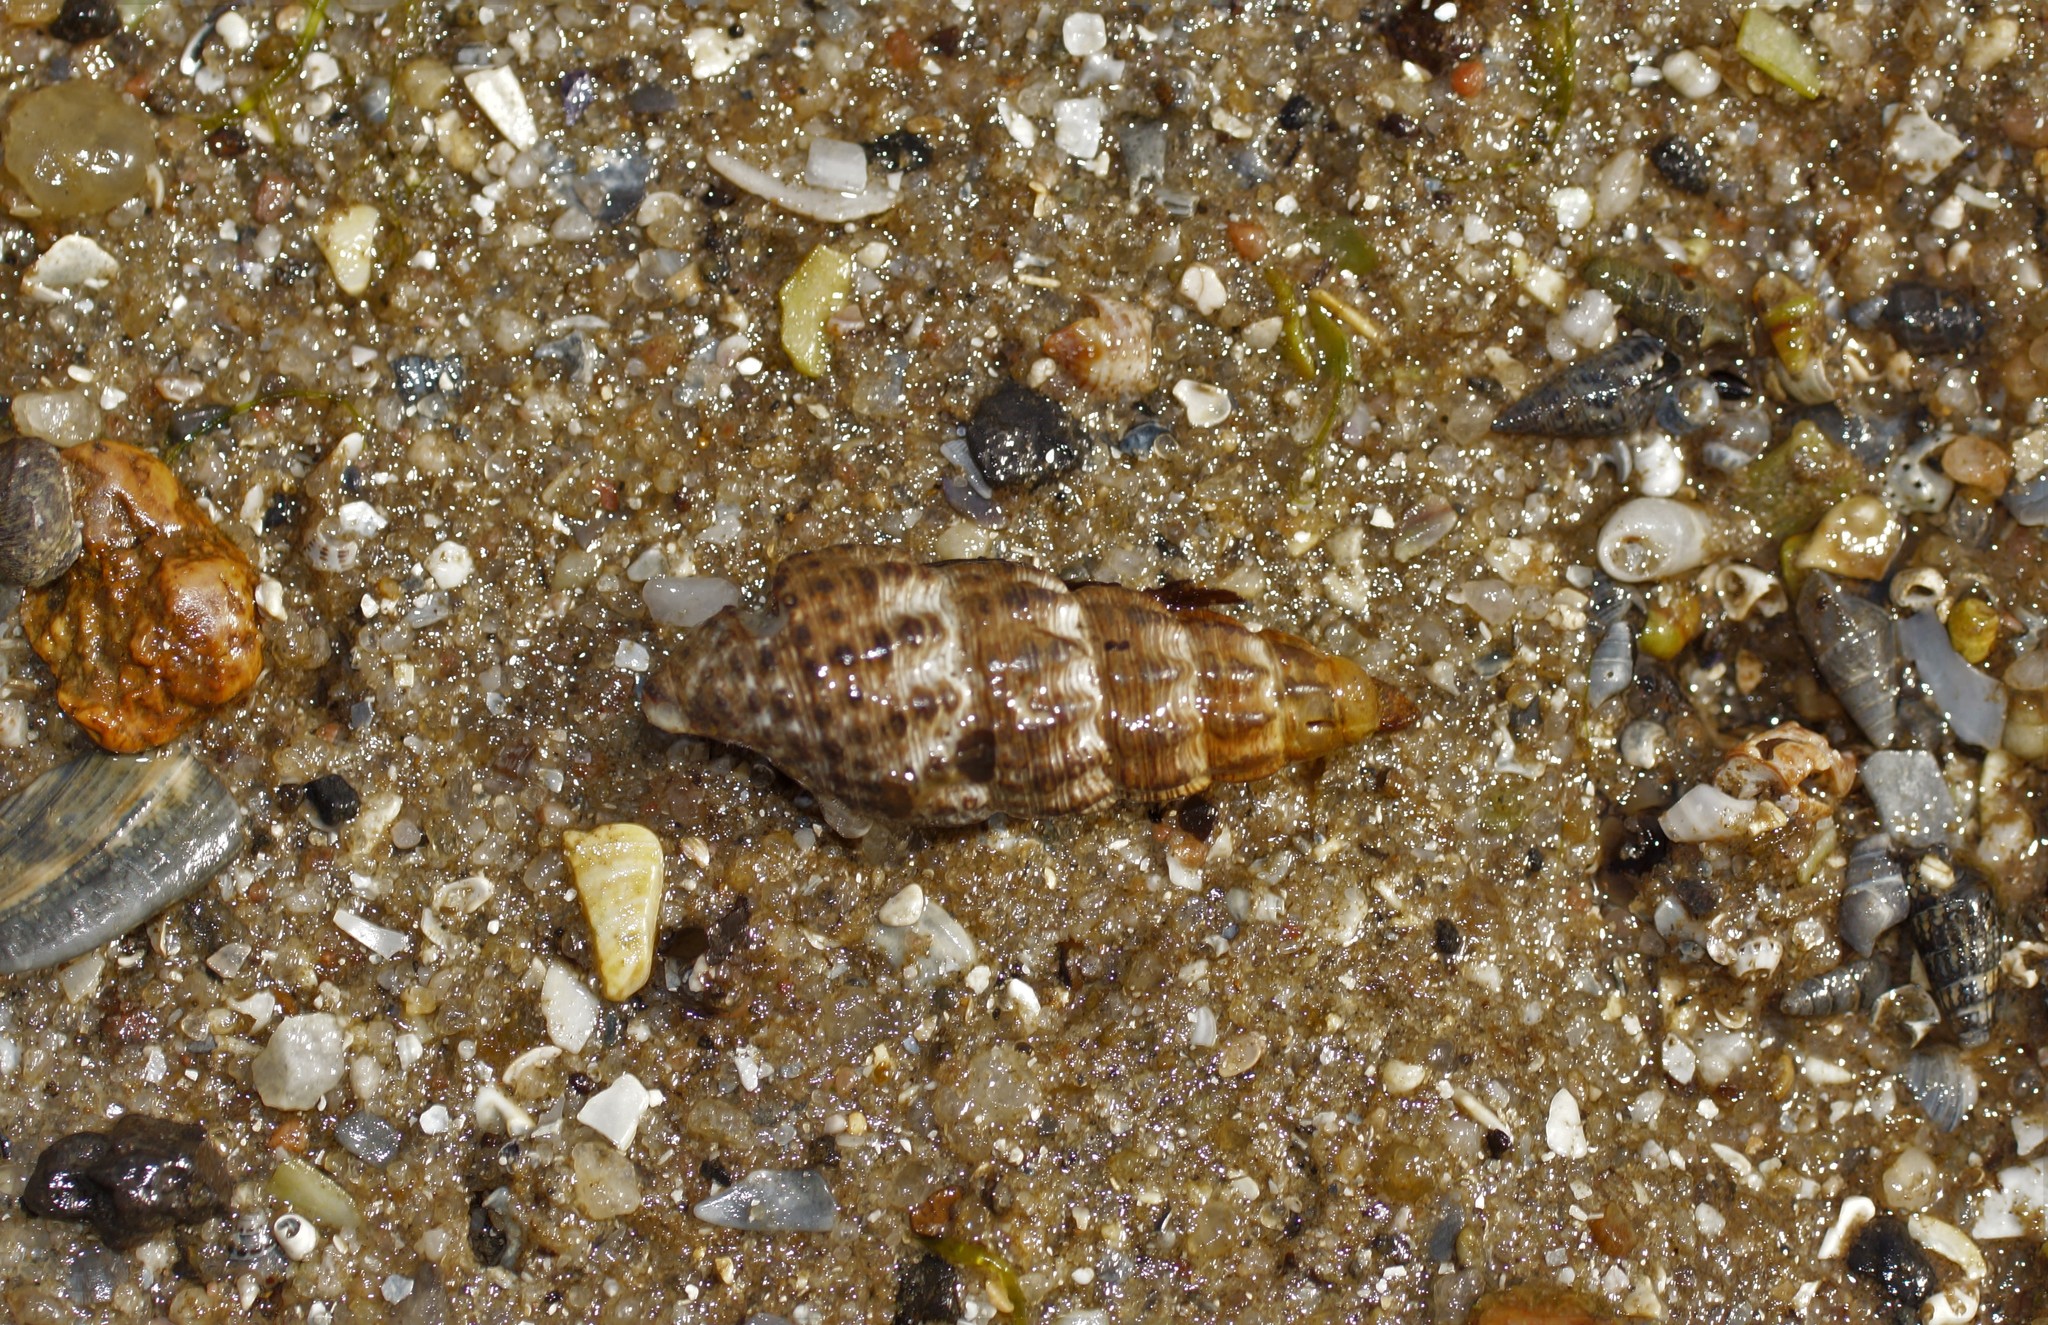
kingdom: Animalia
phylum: Mollusca
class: Gastropoda
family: Batillariidae
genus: Batillaria
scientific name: Batillaria australis
